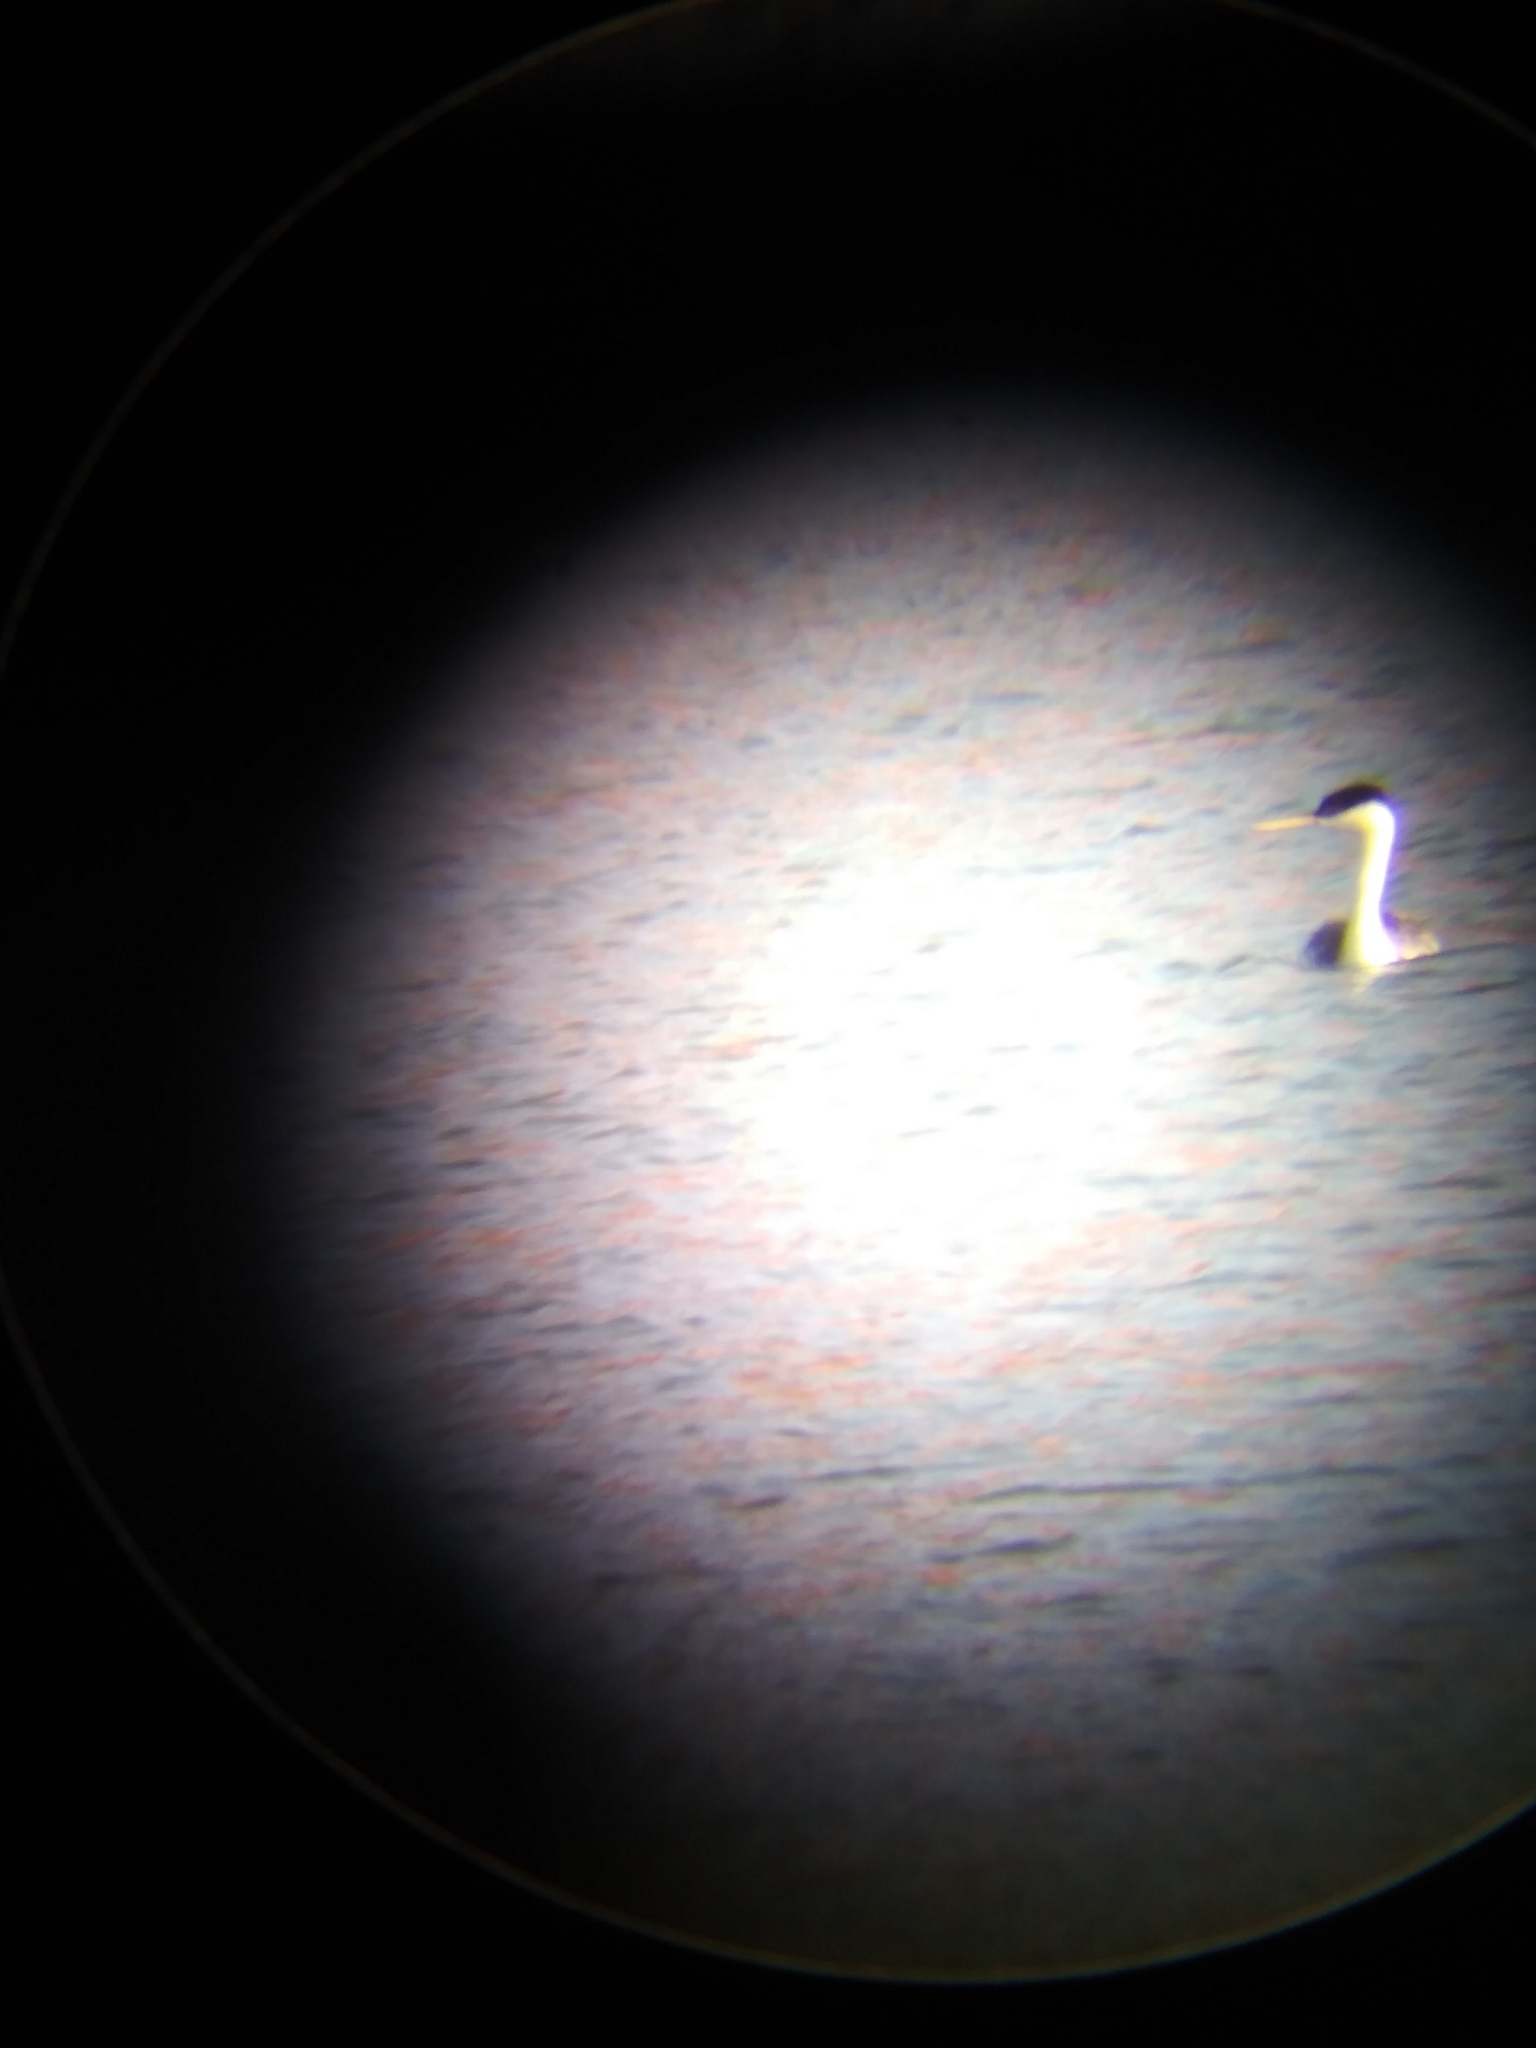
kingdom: Animalia
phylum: Chordata
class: Aves
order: Podicipediformes
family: Podicipedidae
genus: Aechmophorus
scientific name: Aechmophorus occidentalis
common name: Western grebe
